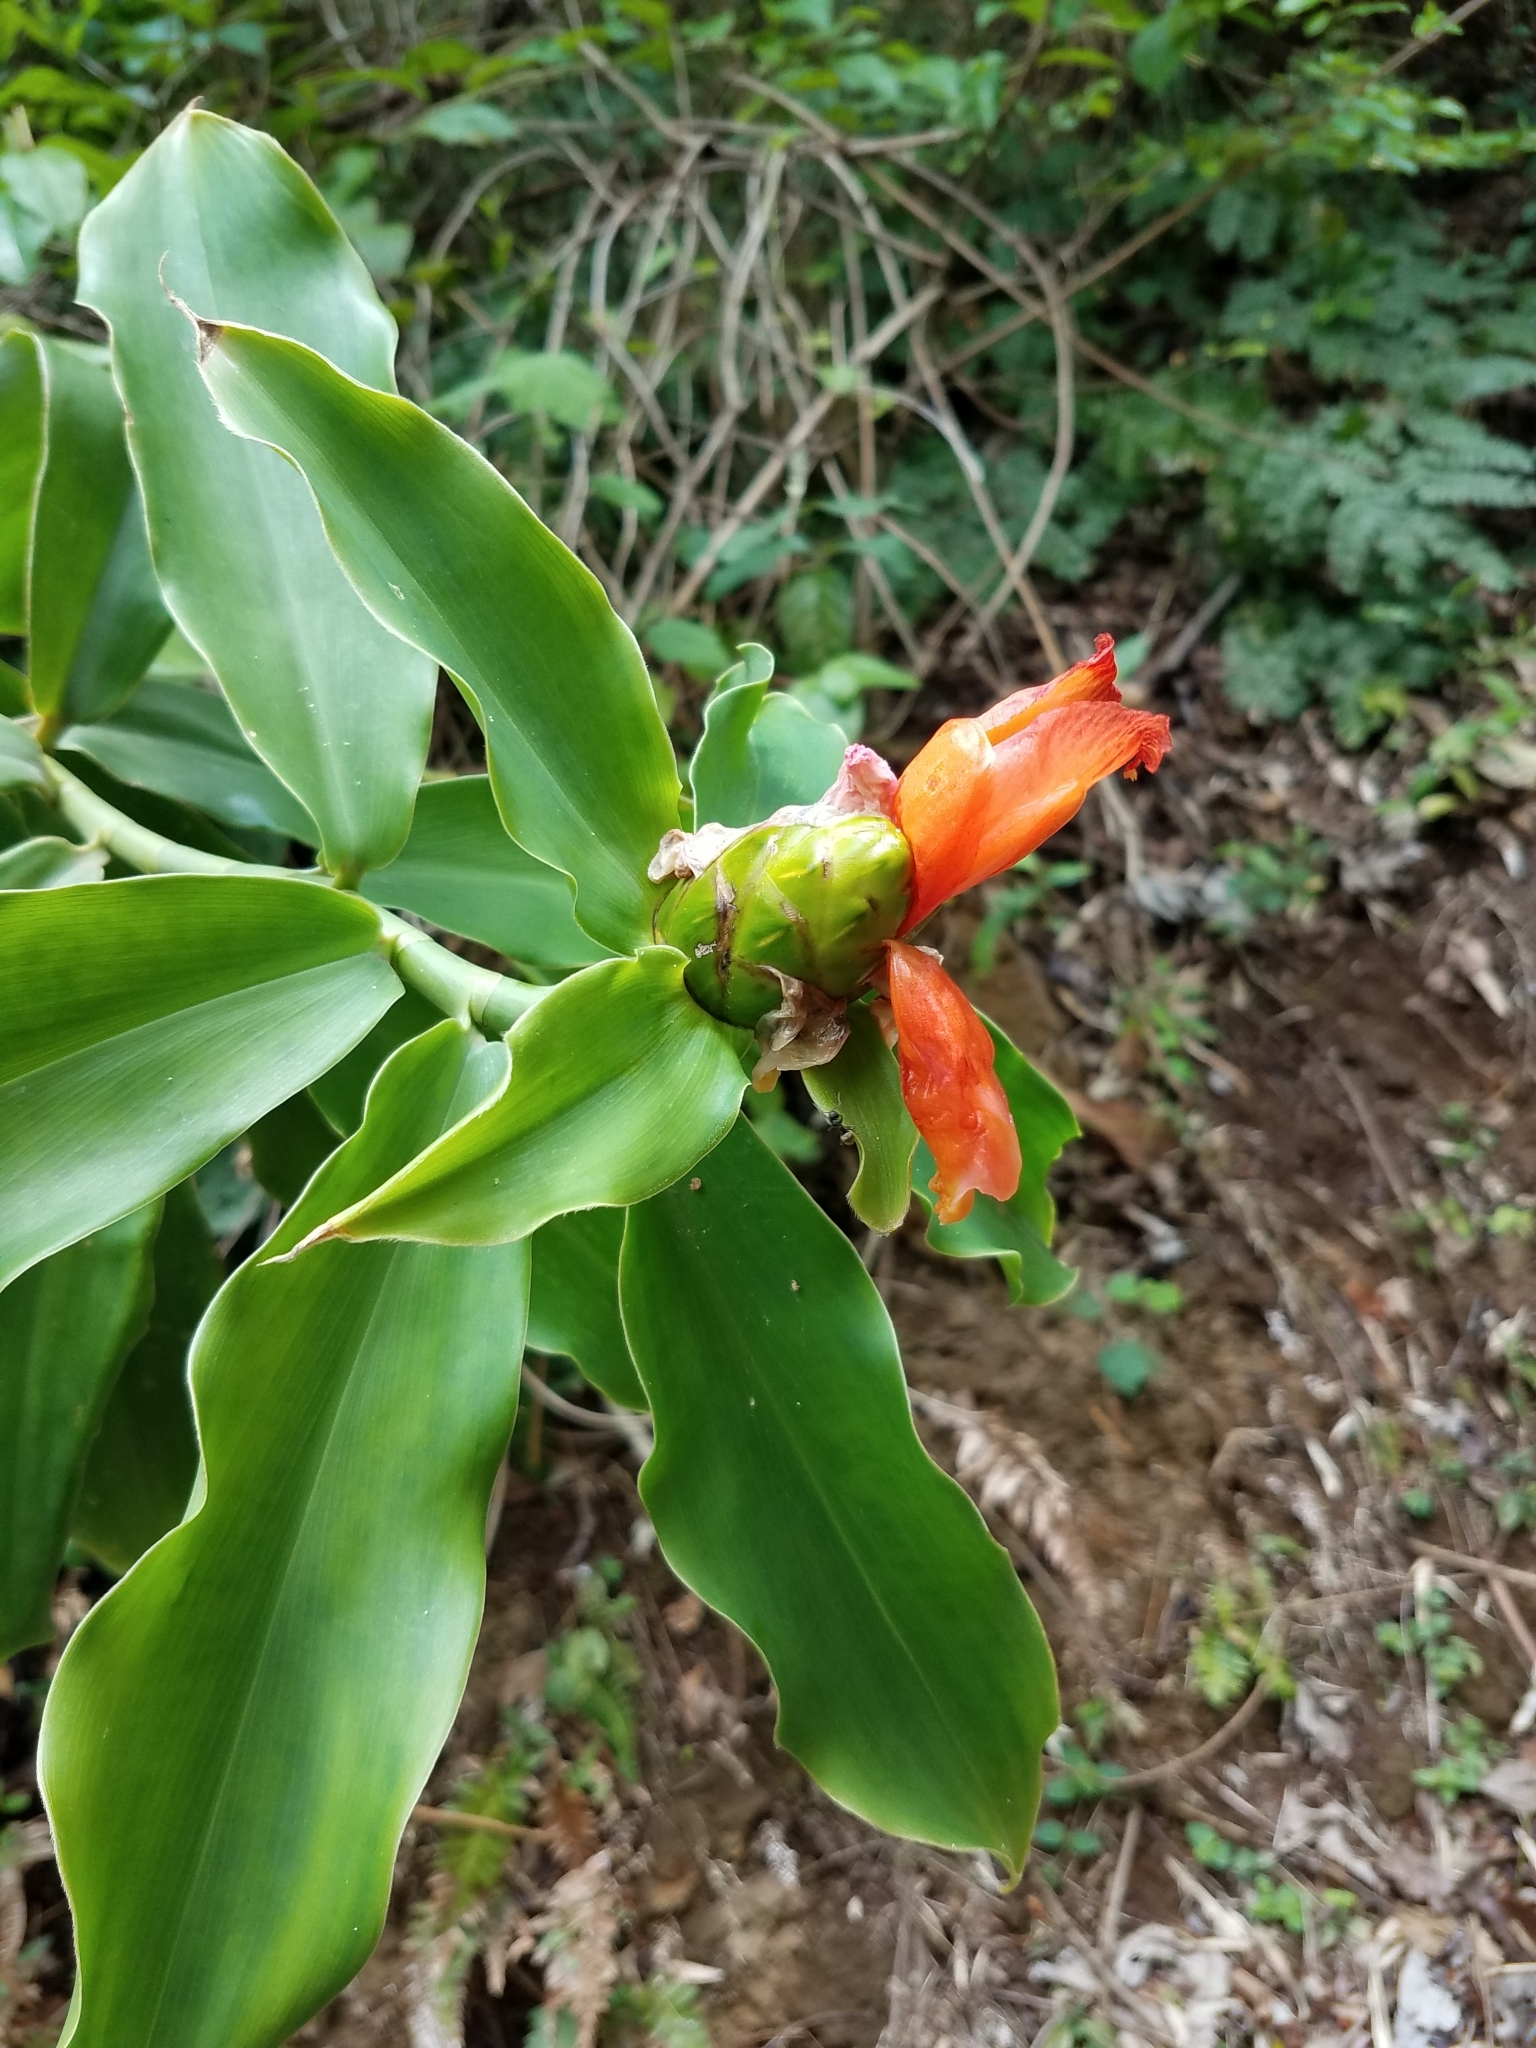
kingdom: Plantae
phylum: Tracheophyta
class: Liliopsida
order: Zingiberales
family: Costaceae
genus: Costus
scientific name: Costus pictus
